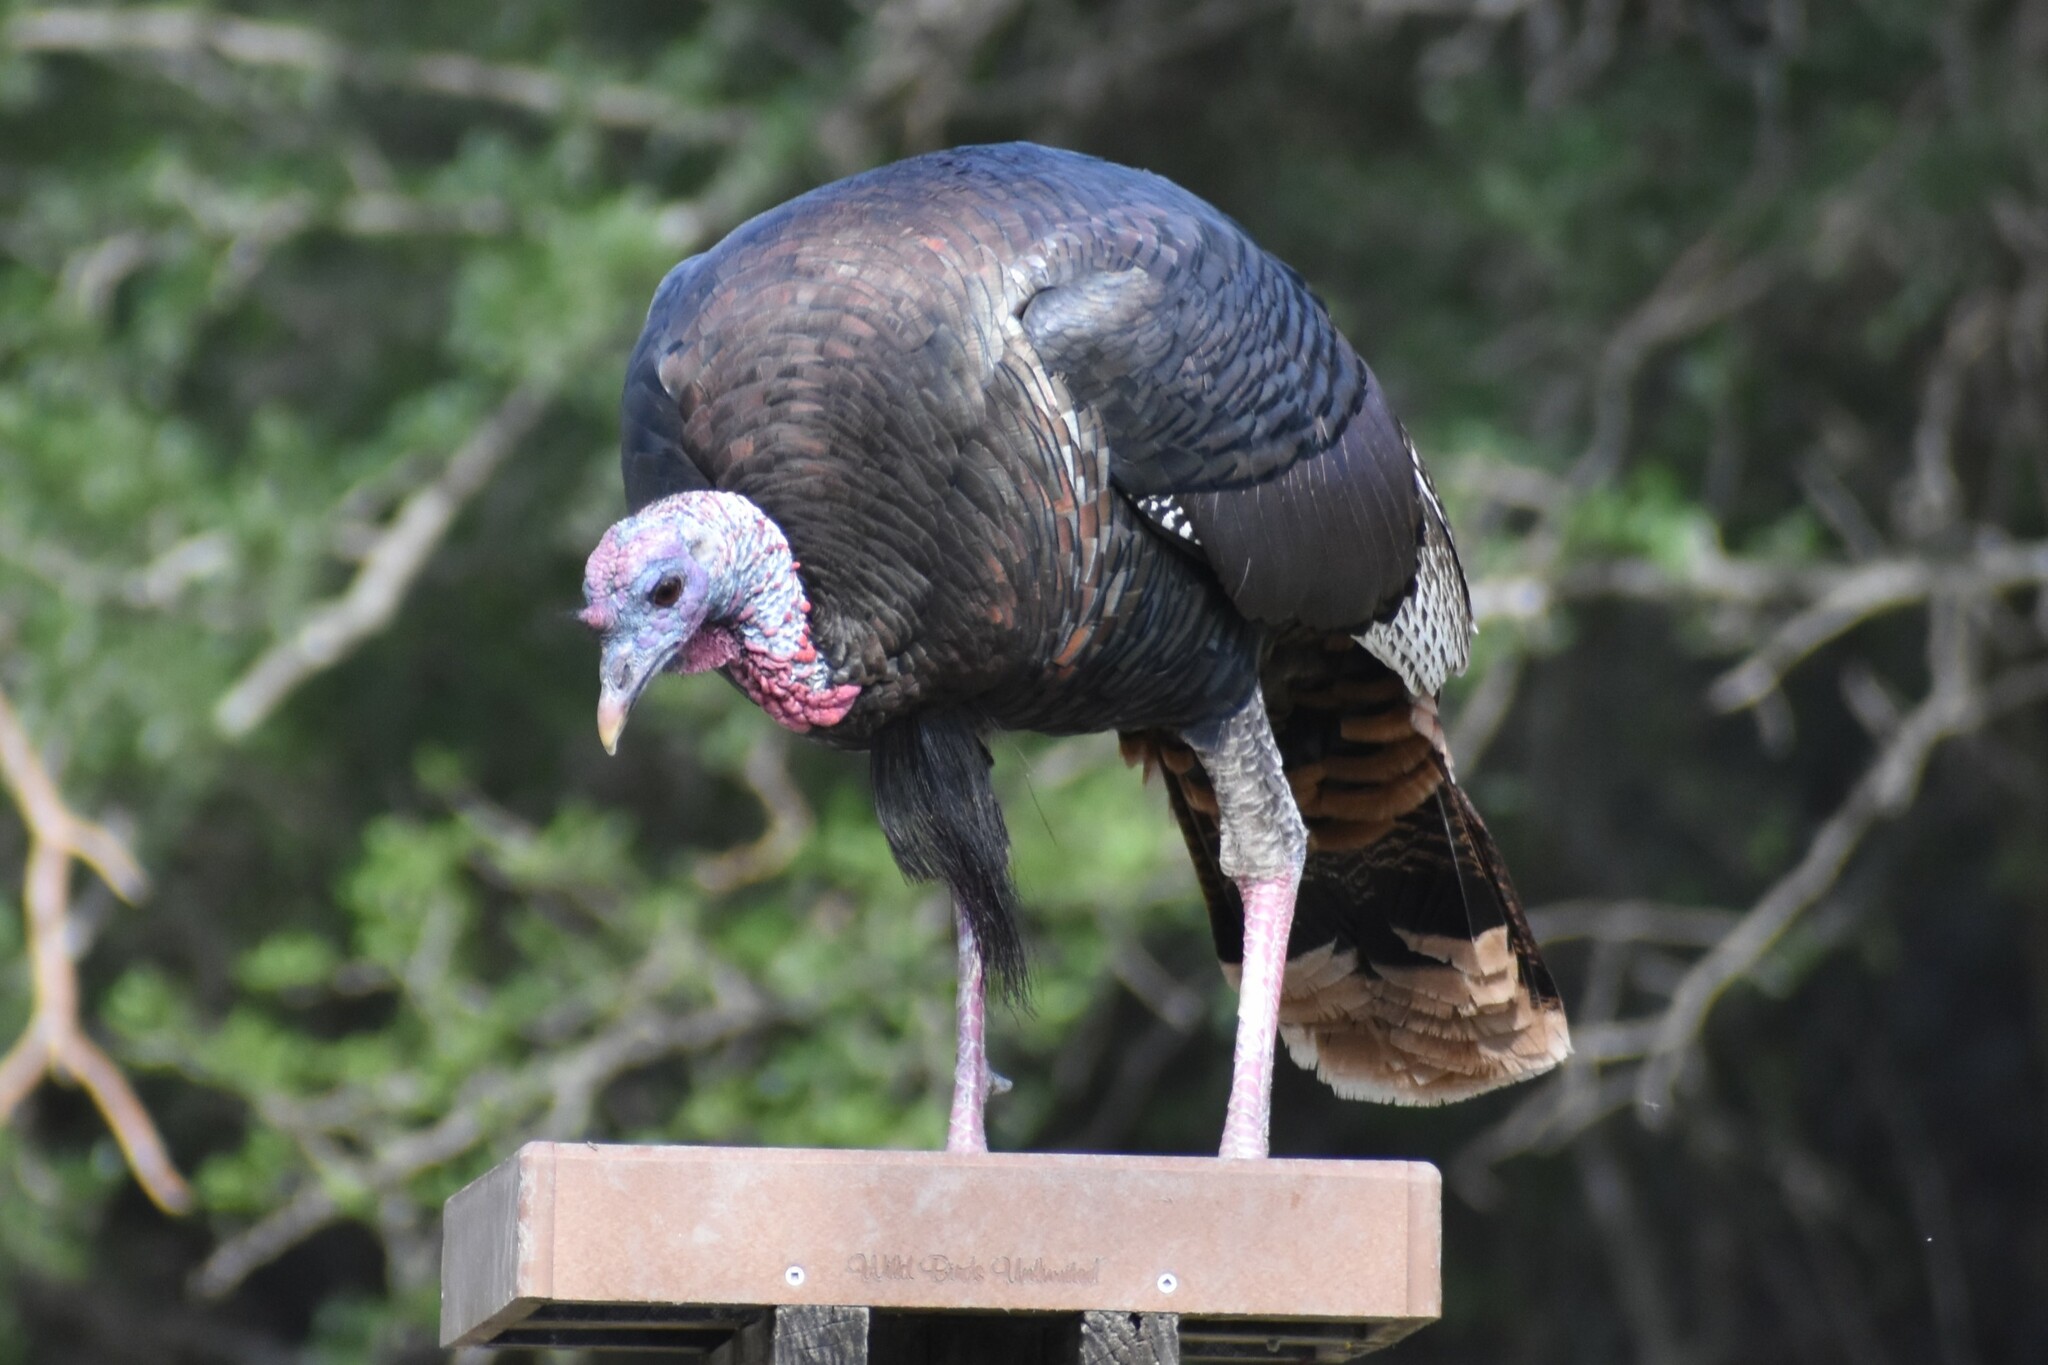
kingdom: Animalia
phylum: Chordata
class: Aves
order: Galliformes
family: Phasianidae
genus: Meleagris
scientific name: Meleagris gallopavo
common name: Wild turkey
